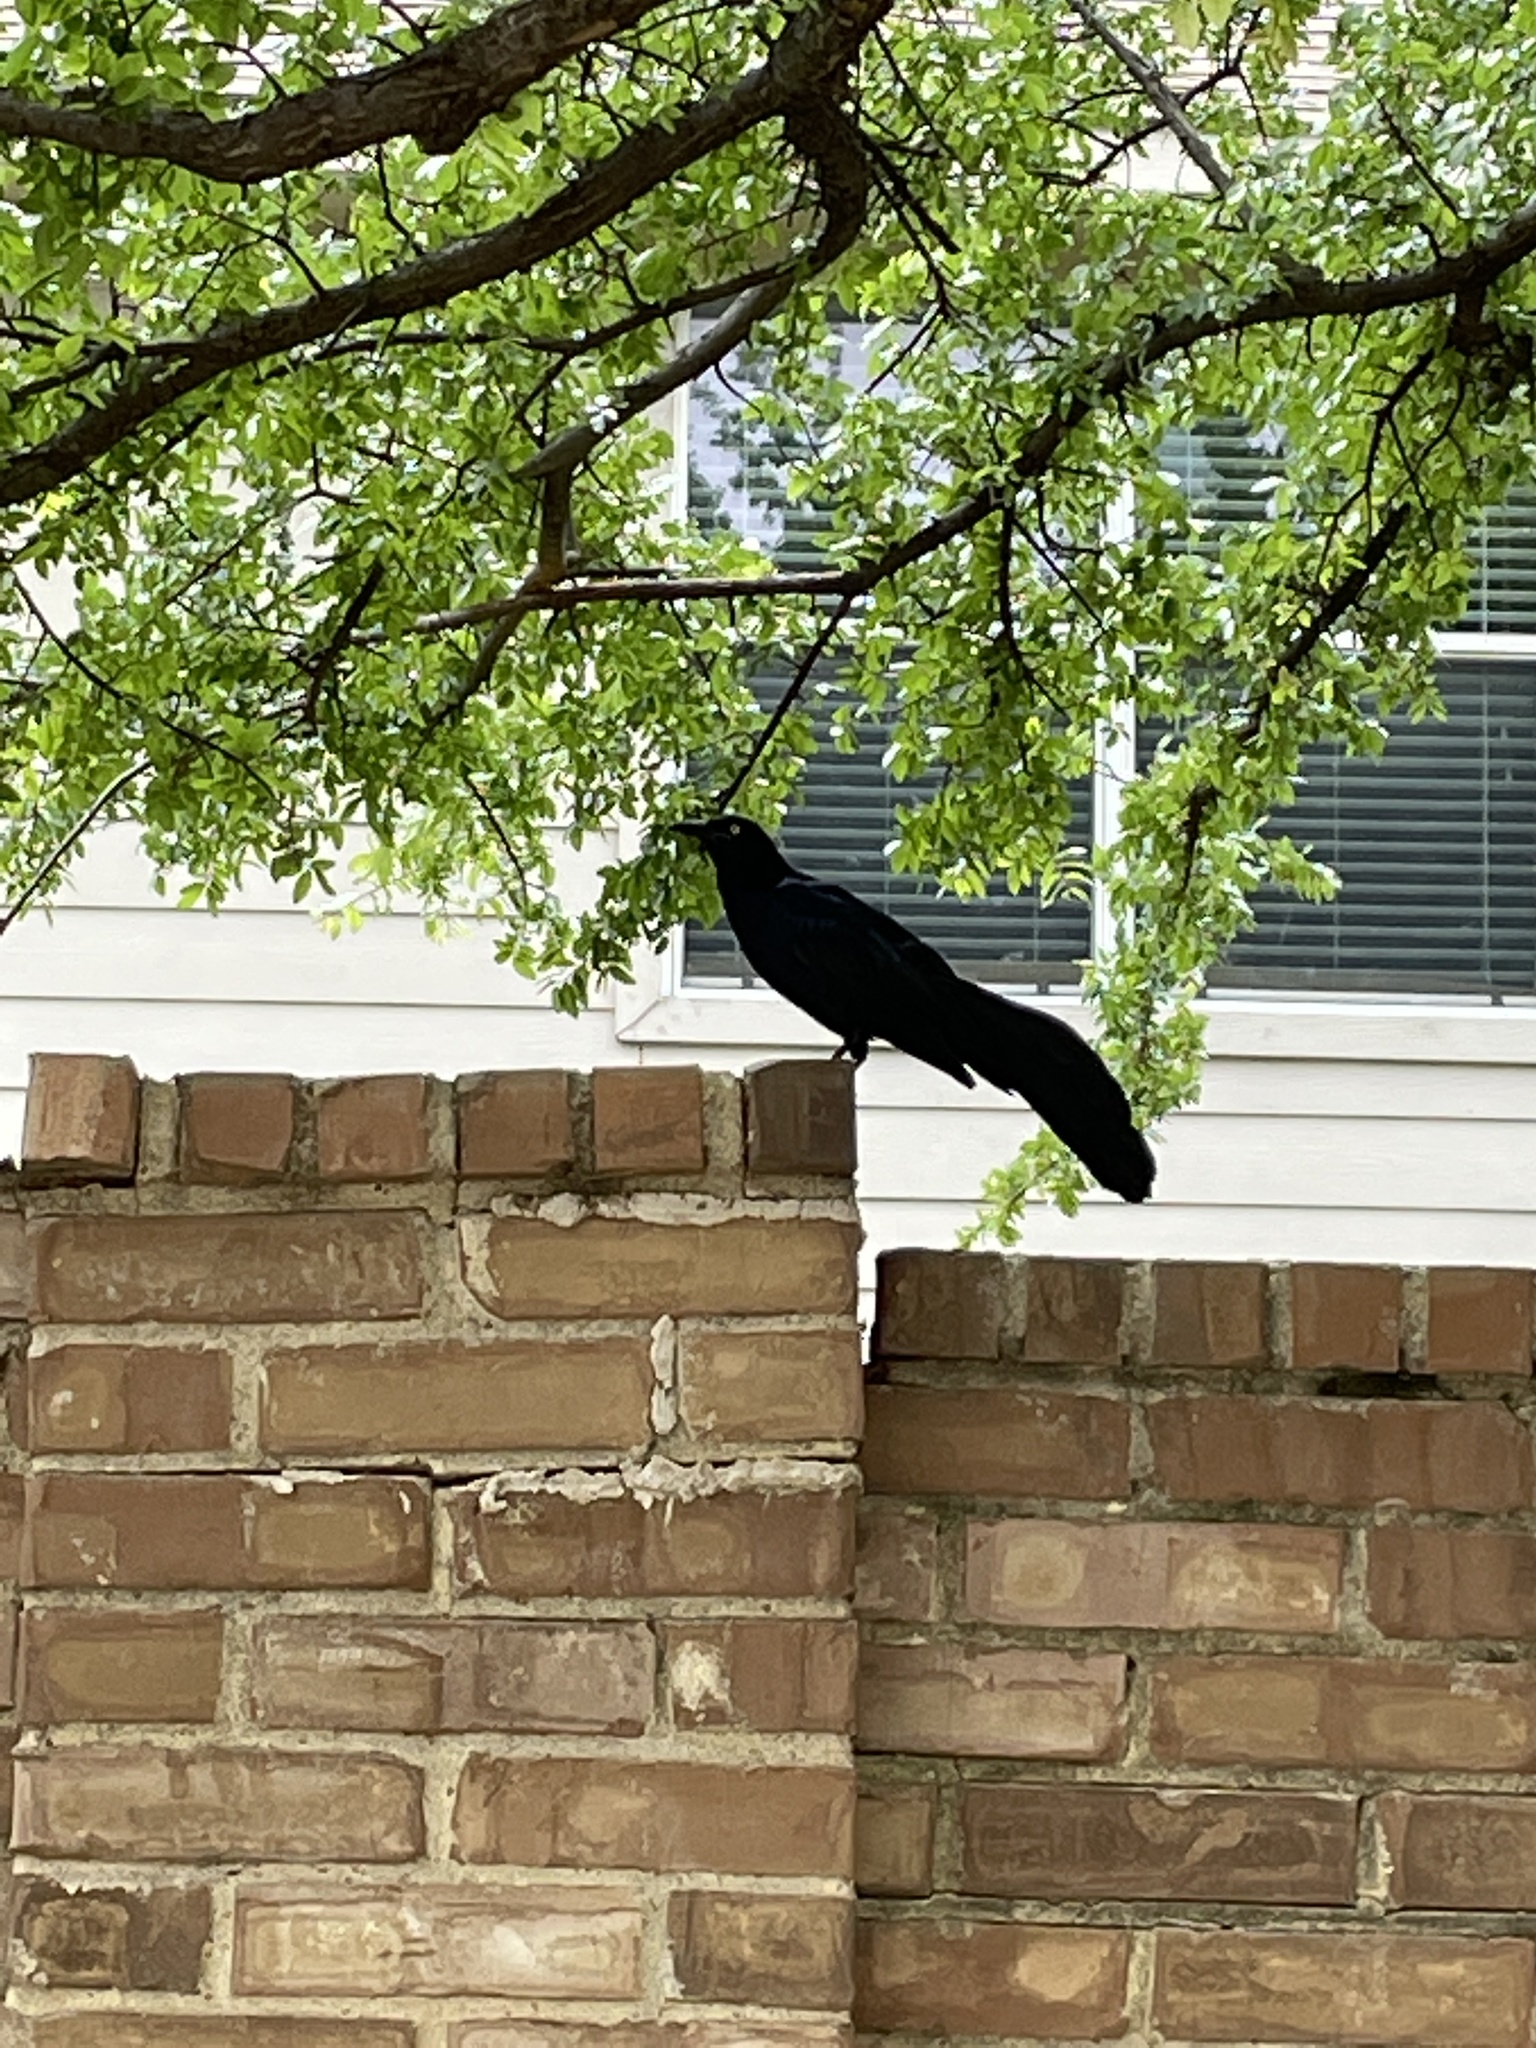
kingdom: Animalia
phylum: Chordata
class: Aves
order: Passeriformes
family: Icteridae
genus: Quiscalus
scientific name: Quiscalus mexicanus
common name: Great-tailed grackle
